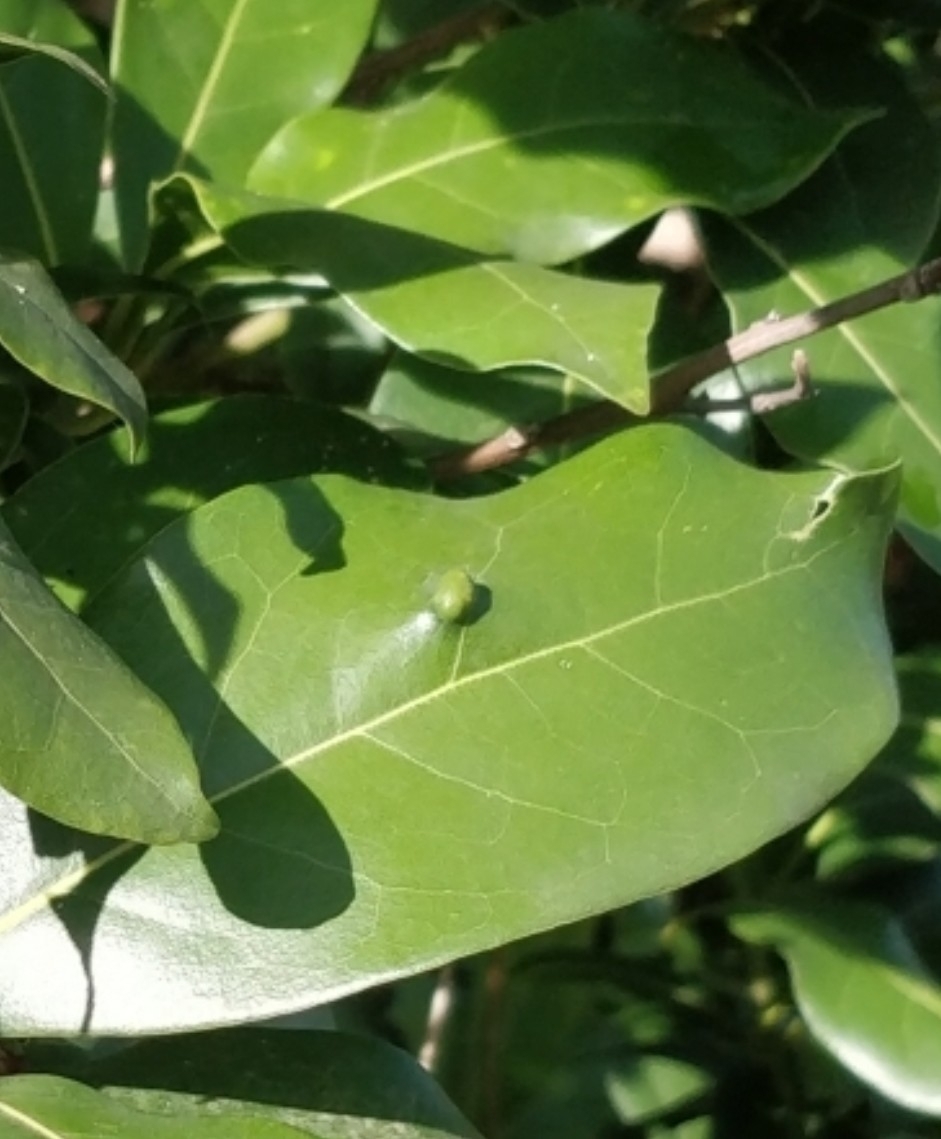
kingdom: Animalia
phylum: Arthropoda
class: Arachnida
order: Trombidiformes
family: Eriophyidae
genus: Aceria
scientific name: Aceria barbujanae
